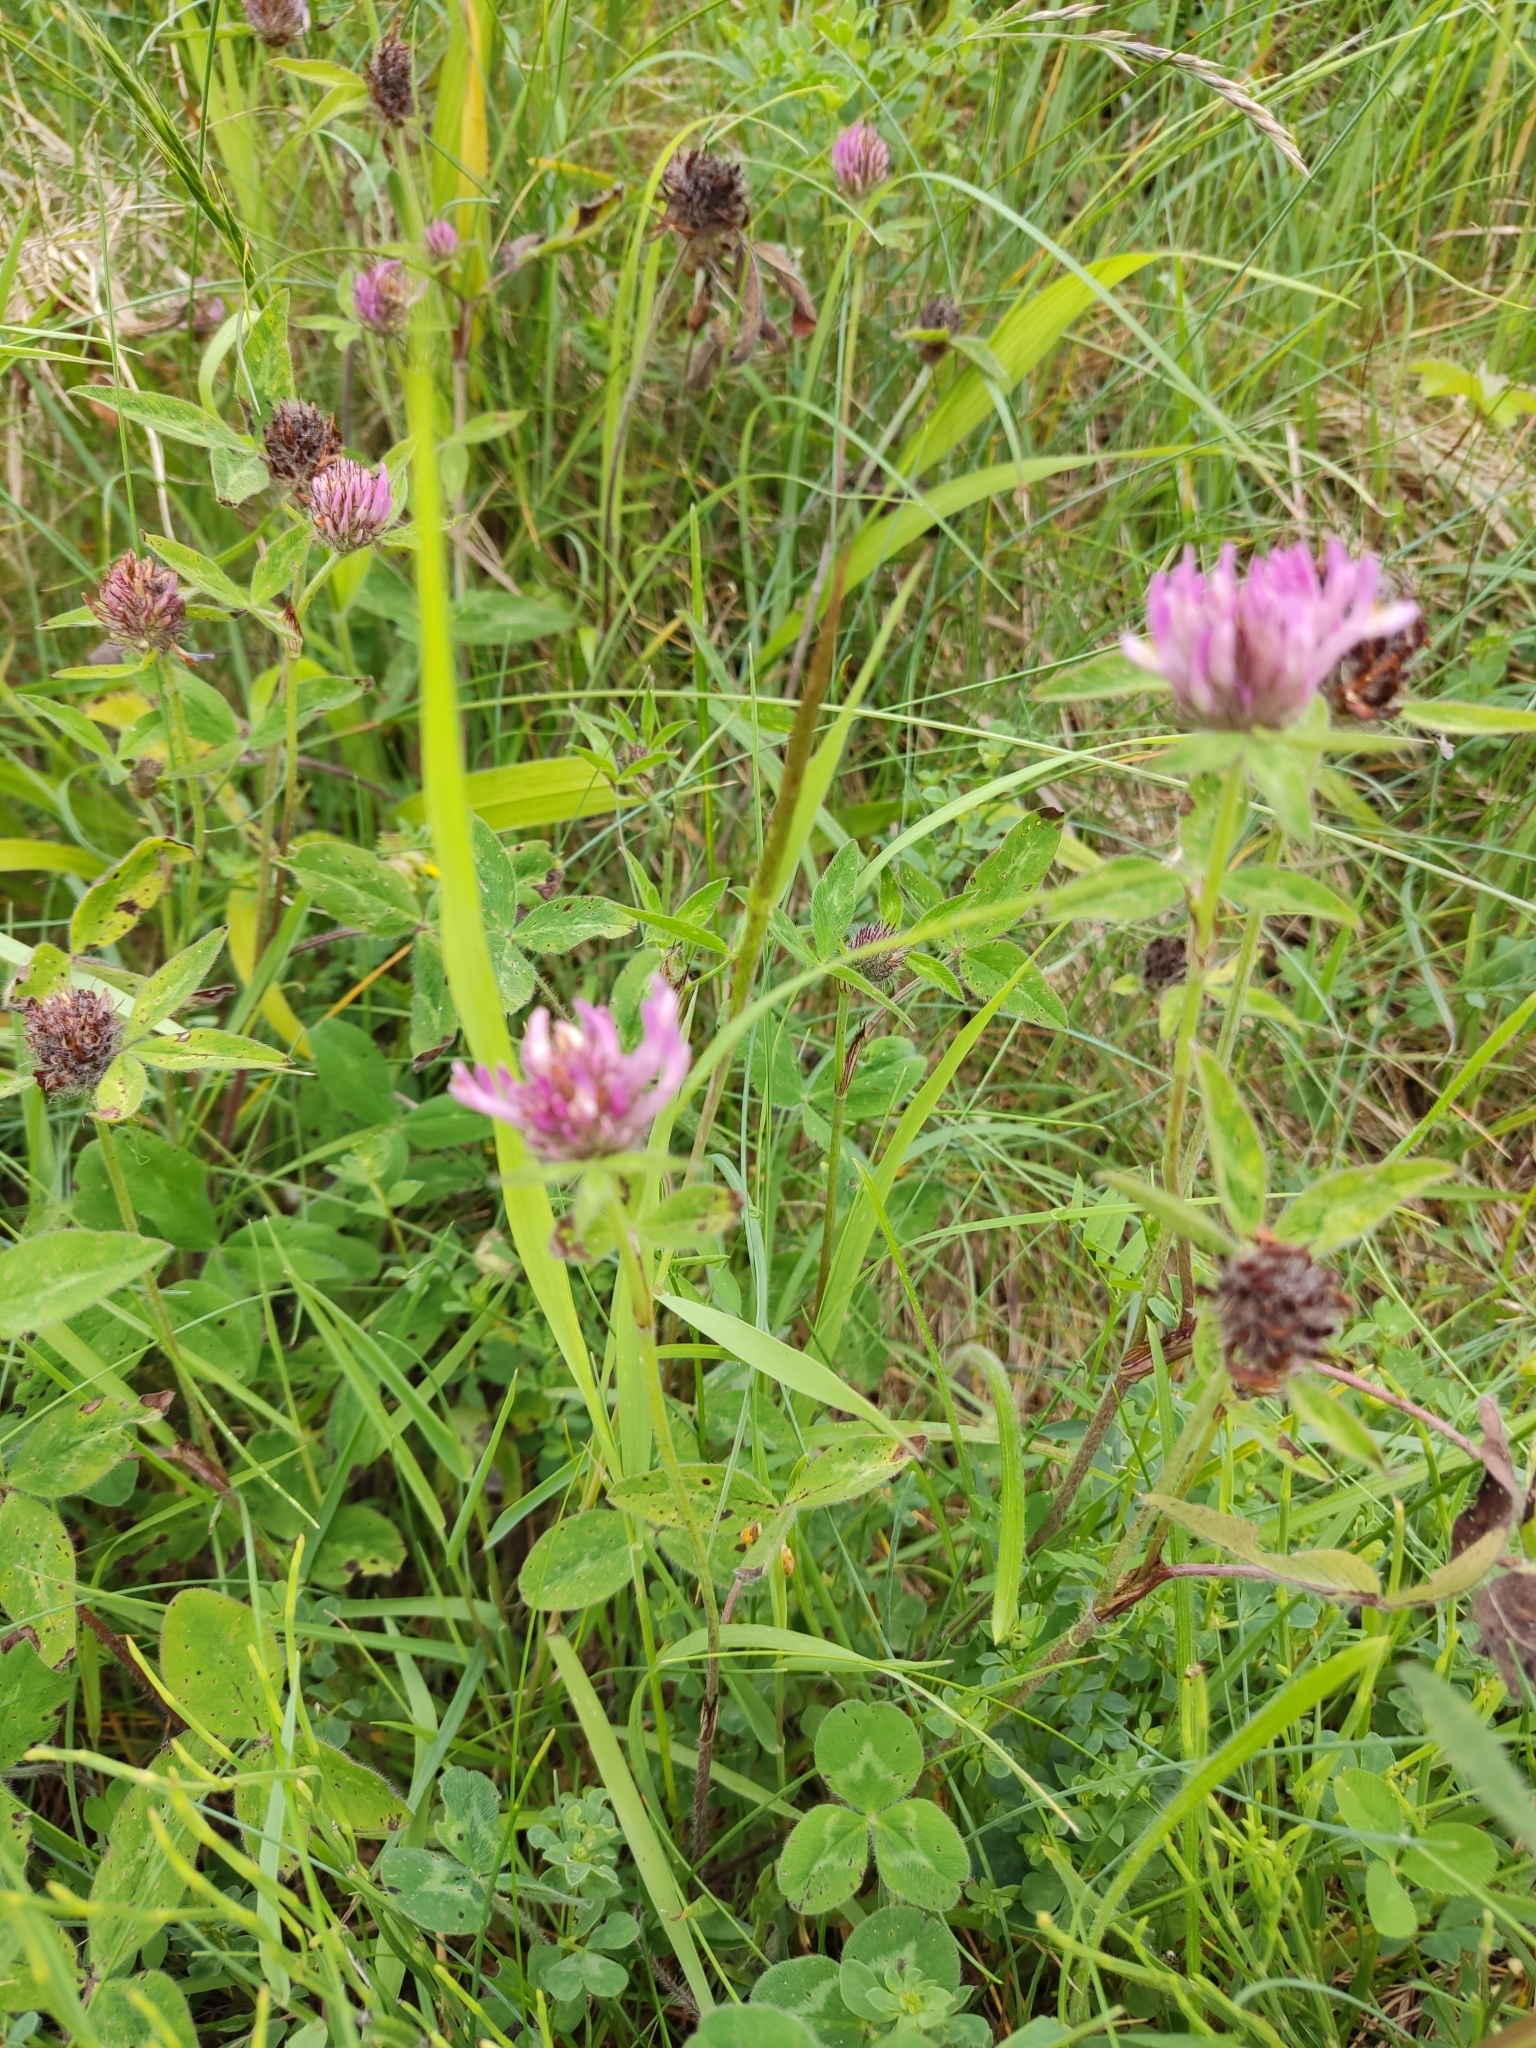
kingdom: Plantae
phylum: Tracheophyta
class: Magnoliopsida
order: Fabales
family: Fabaceae
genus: Trifolium
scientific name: Trifolium pratense
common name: Red clover
